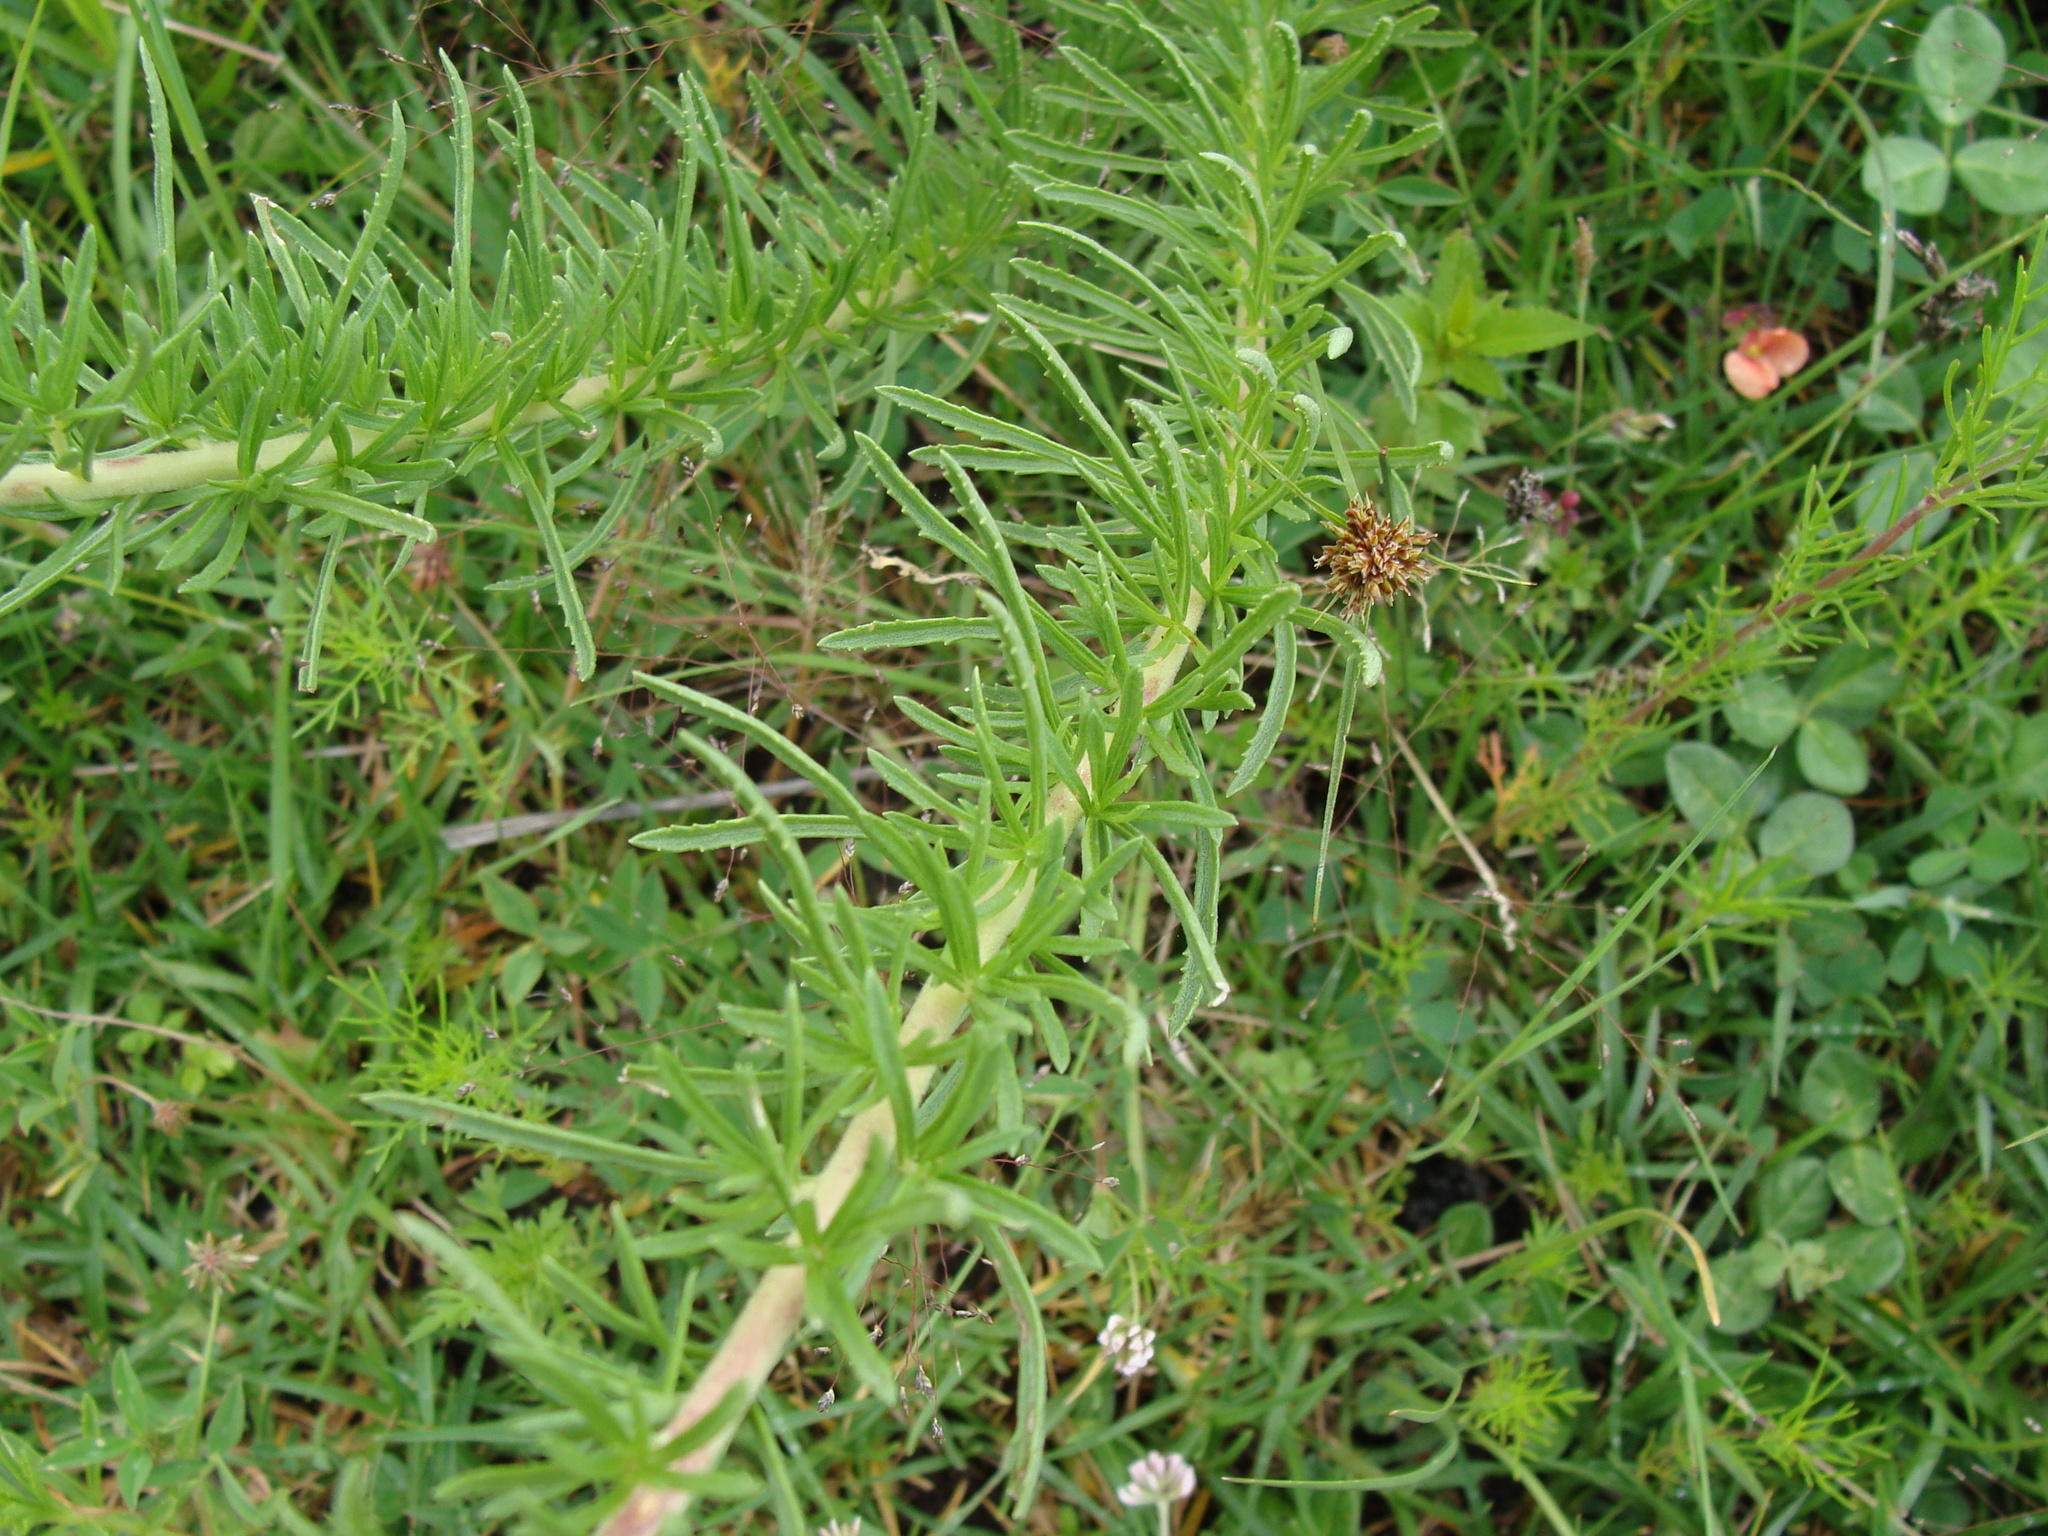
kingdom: Plantae
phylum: Tracheophyta
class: Magnoliopsida
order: Asterales
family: Asteraceae
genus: Stevia
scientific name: Stevia serrata
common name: Sawtooth candyleaf
